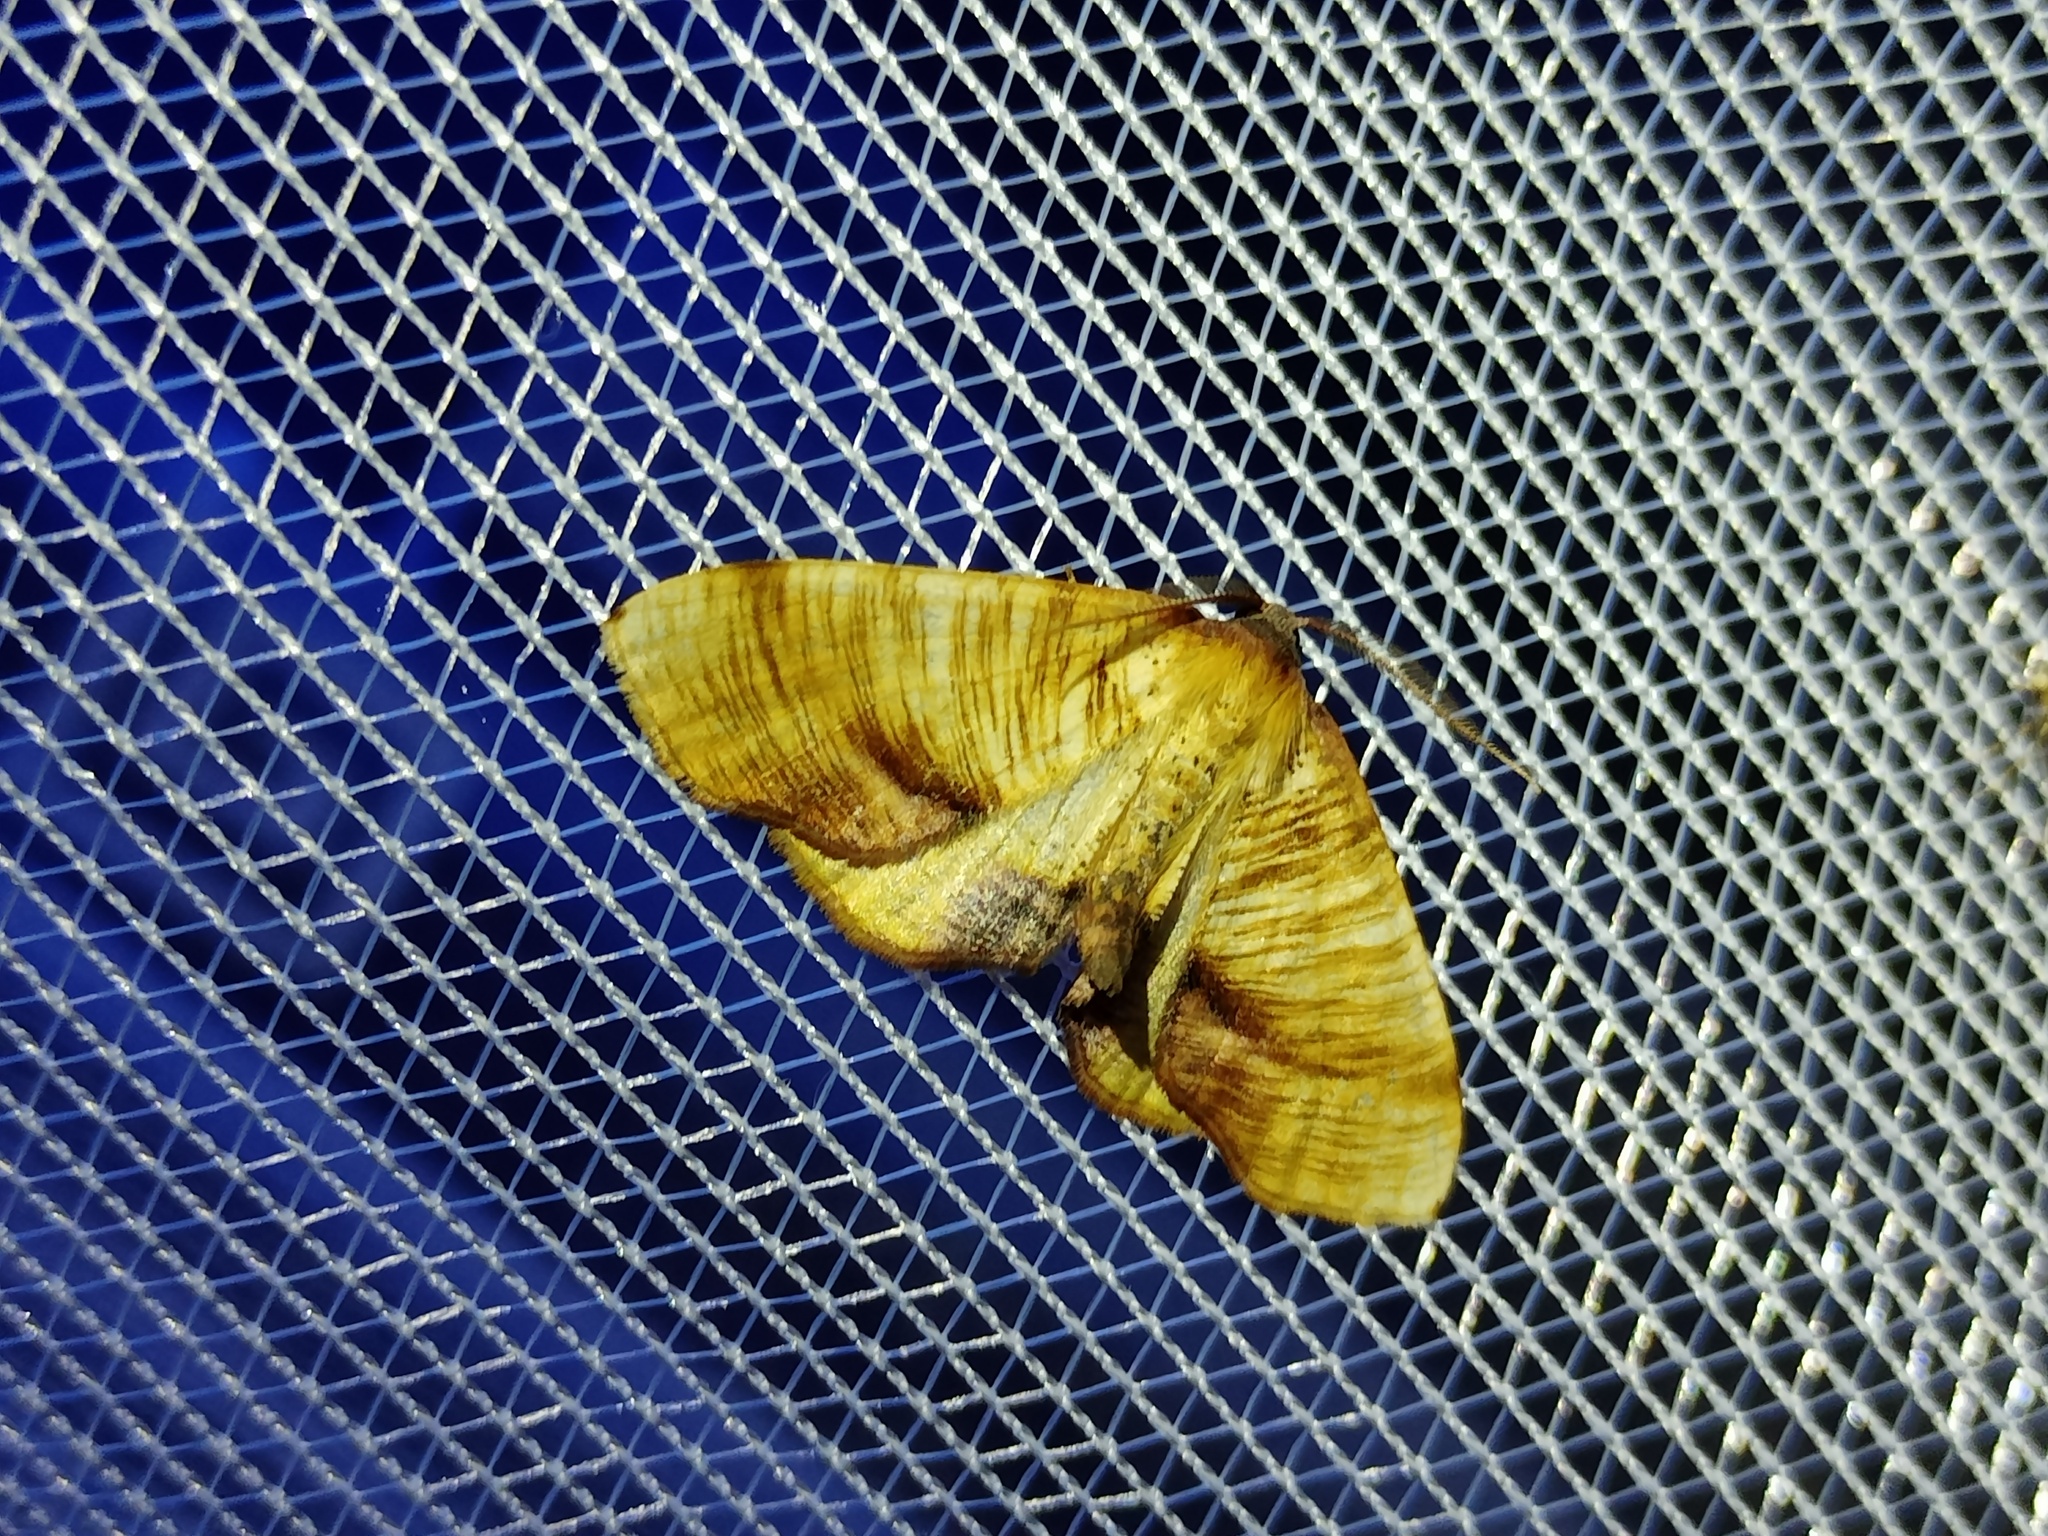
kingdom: Animalia
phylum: Arthropoda
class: Insecta
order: Lepidoptera
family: Geometridae
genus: Plagodis
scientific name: Plagodis dolabraria
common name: Scorched wing
